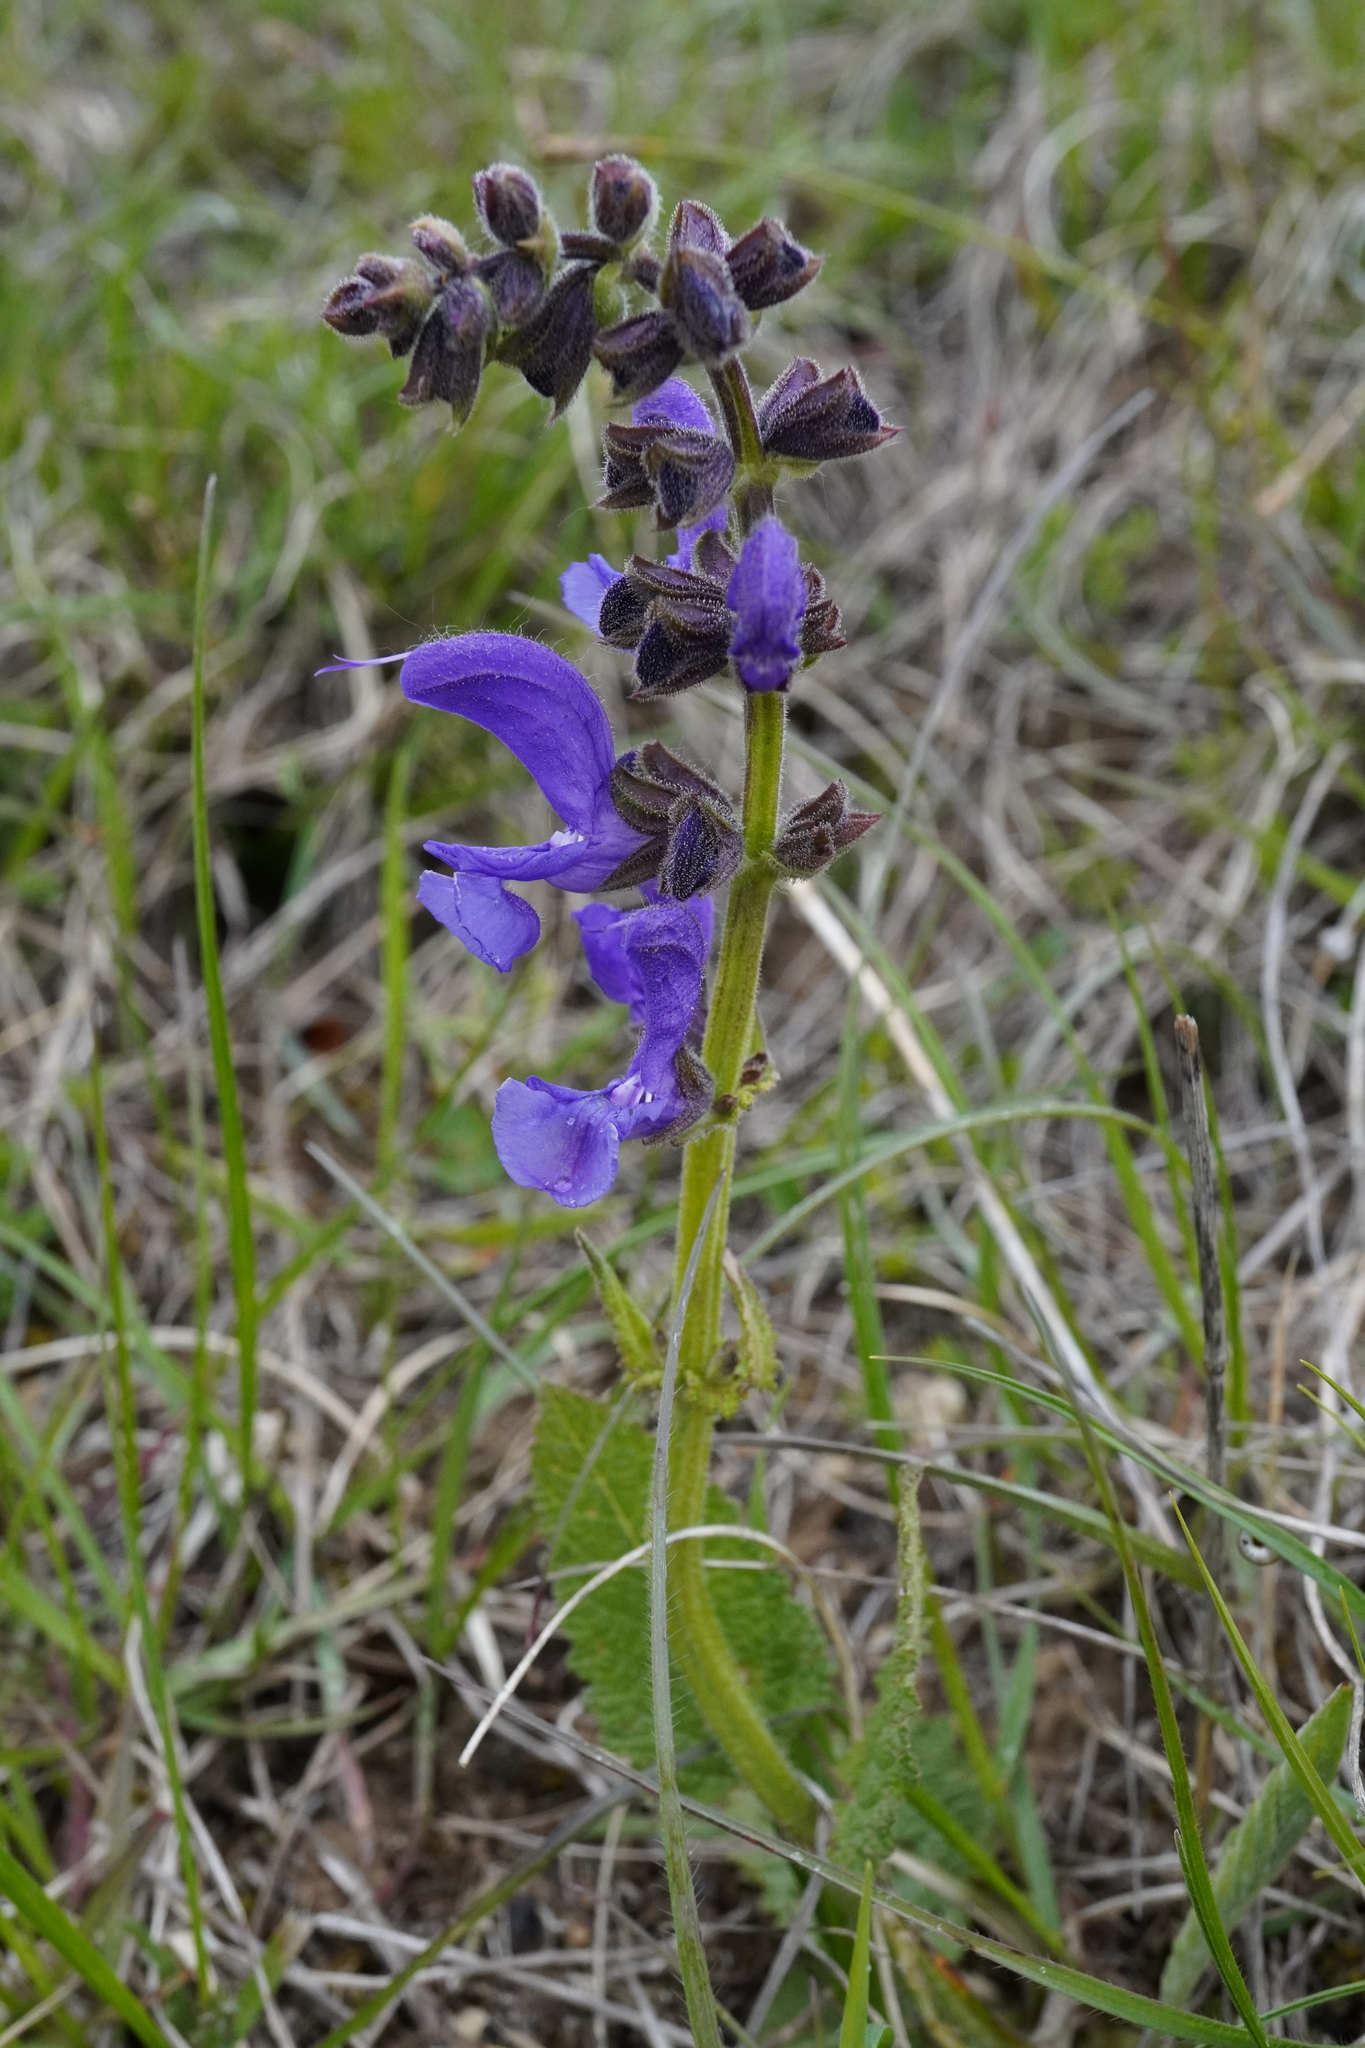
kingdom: Plantae
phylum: Tracheophyta
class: Magnoliopsida
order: Lamiales
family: Lamiaceae
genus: Salvia
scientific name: Salvia pratensis
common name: Meadow sage
